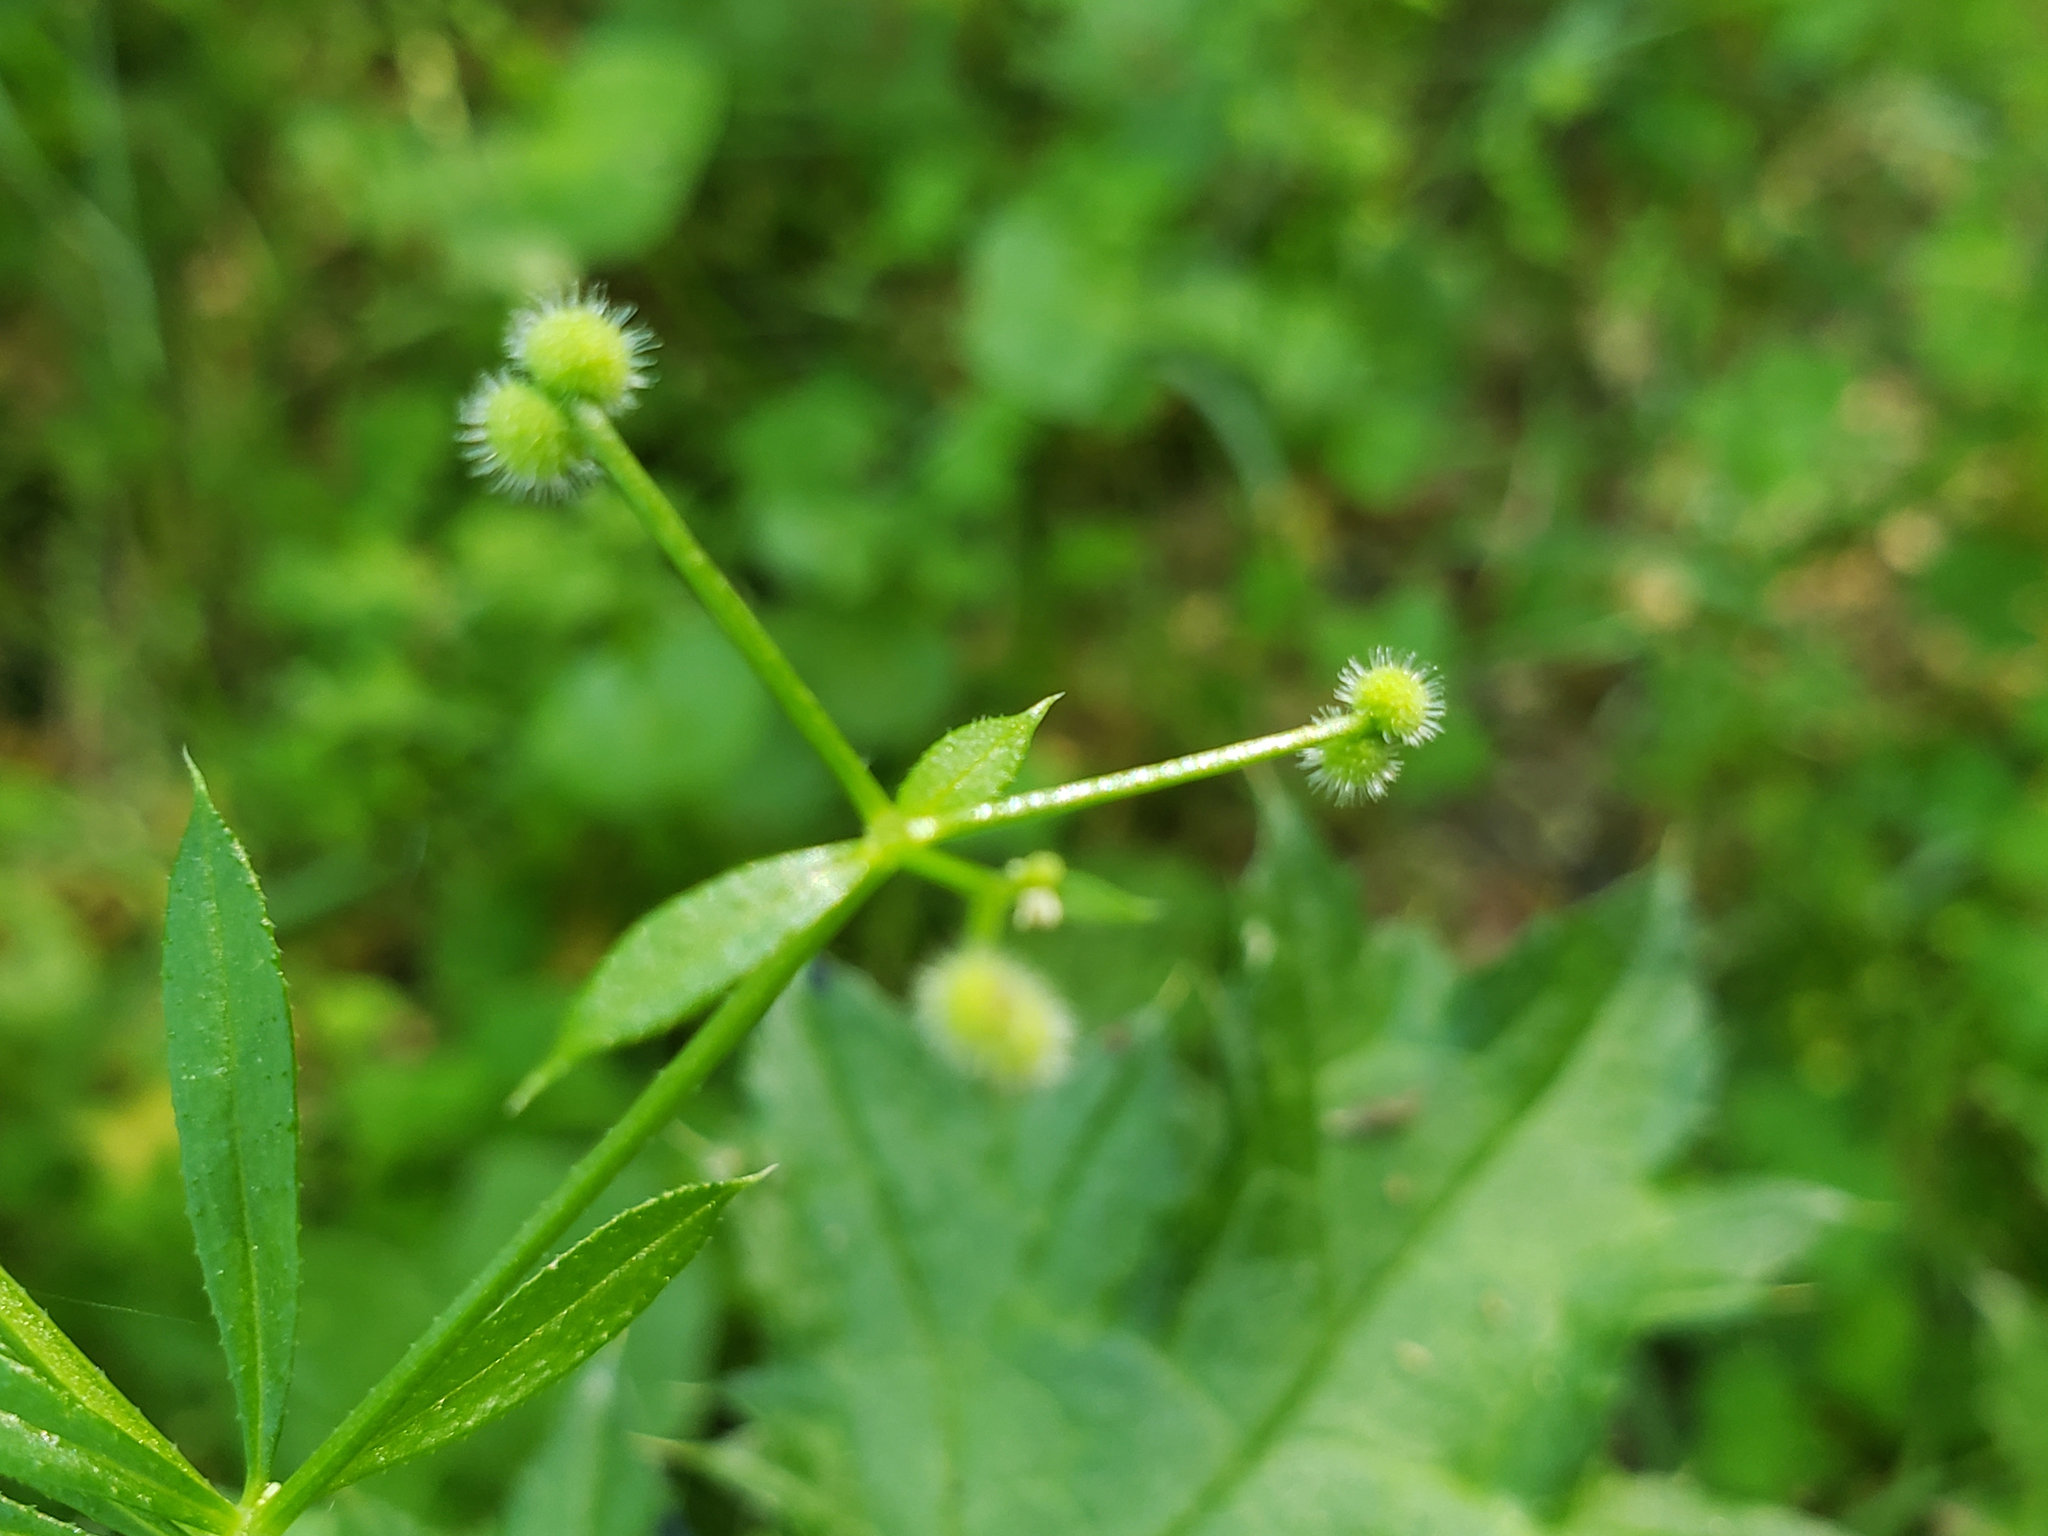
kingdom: Plantae
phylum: Tracheophyta
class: Magnoliopsida
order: Gentianales
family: Rubiaceae
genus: Galium
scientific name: Galium aparine
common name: Cleavers
